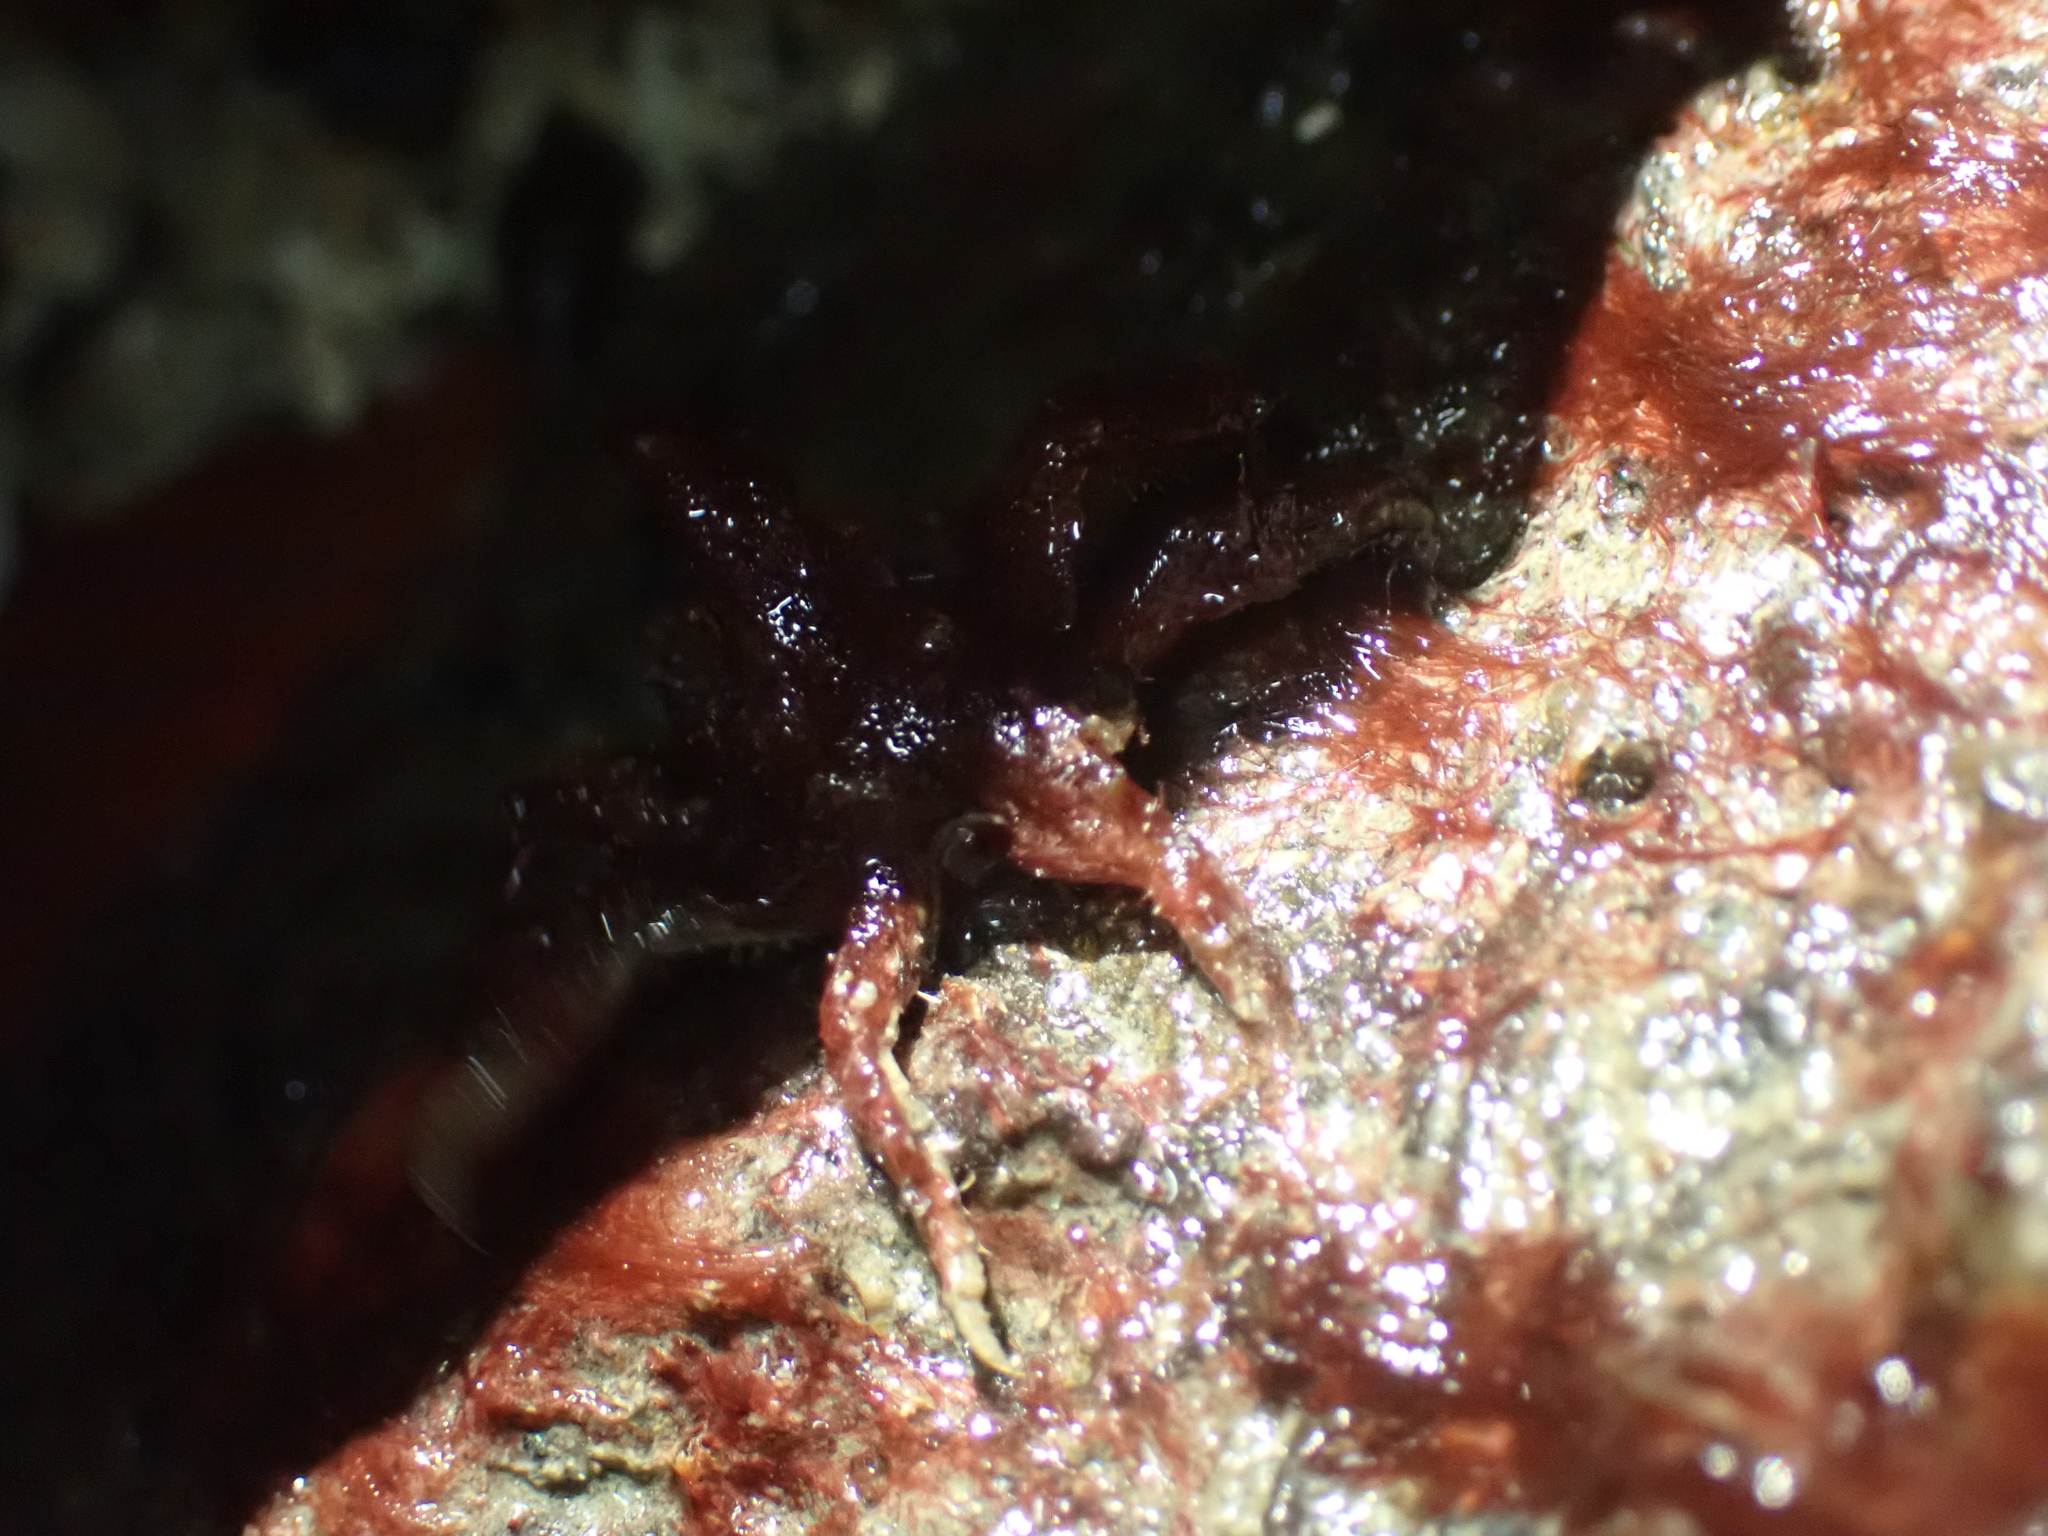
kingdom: Animalia
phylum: Arthropoda
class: Malacostraca
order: Decapoda
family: Oregoniidae
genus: Oregonia
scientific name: Oregonia gracilis
